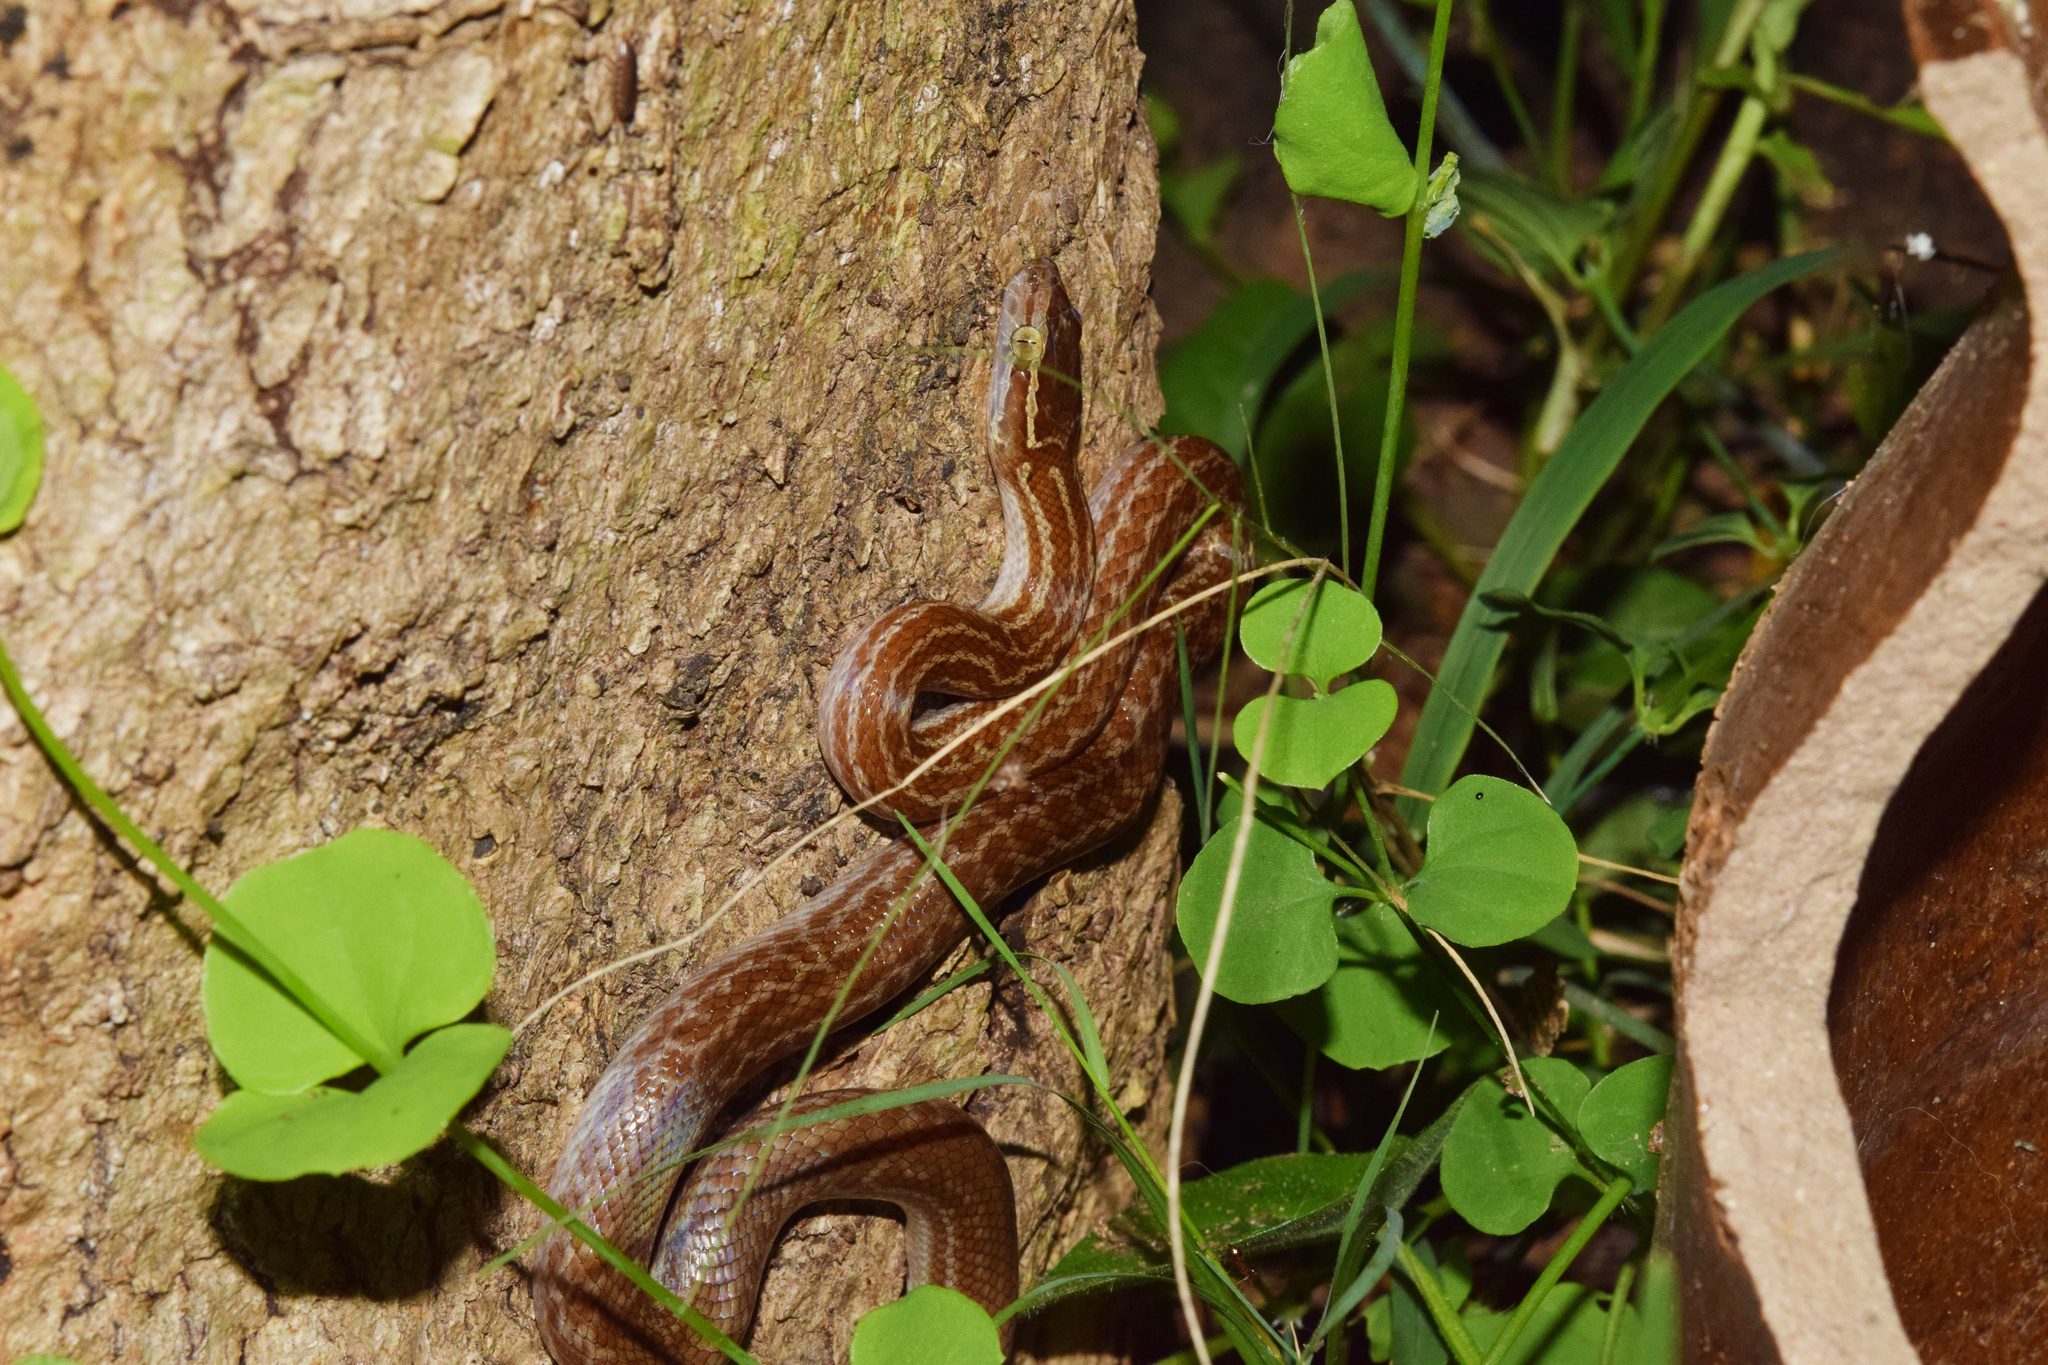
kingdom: Animalia
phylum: Chordata
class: Squamata
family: Lamprophiidae
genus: Boaedon
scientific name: Boaedon capensis
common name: Brown house snake
